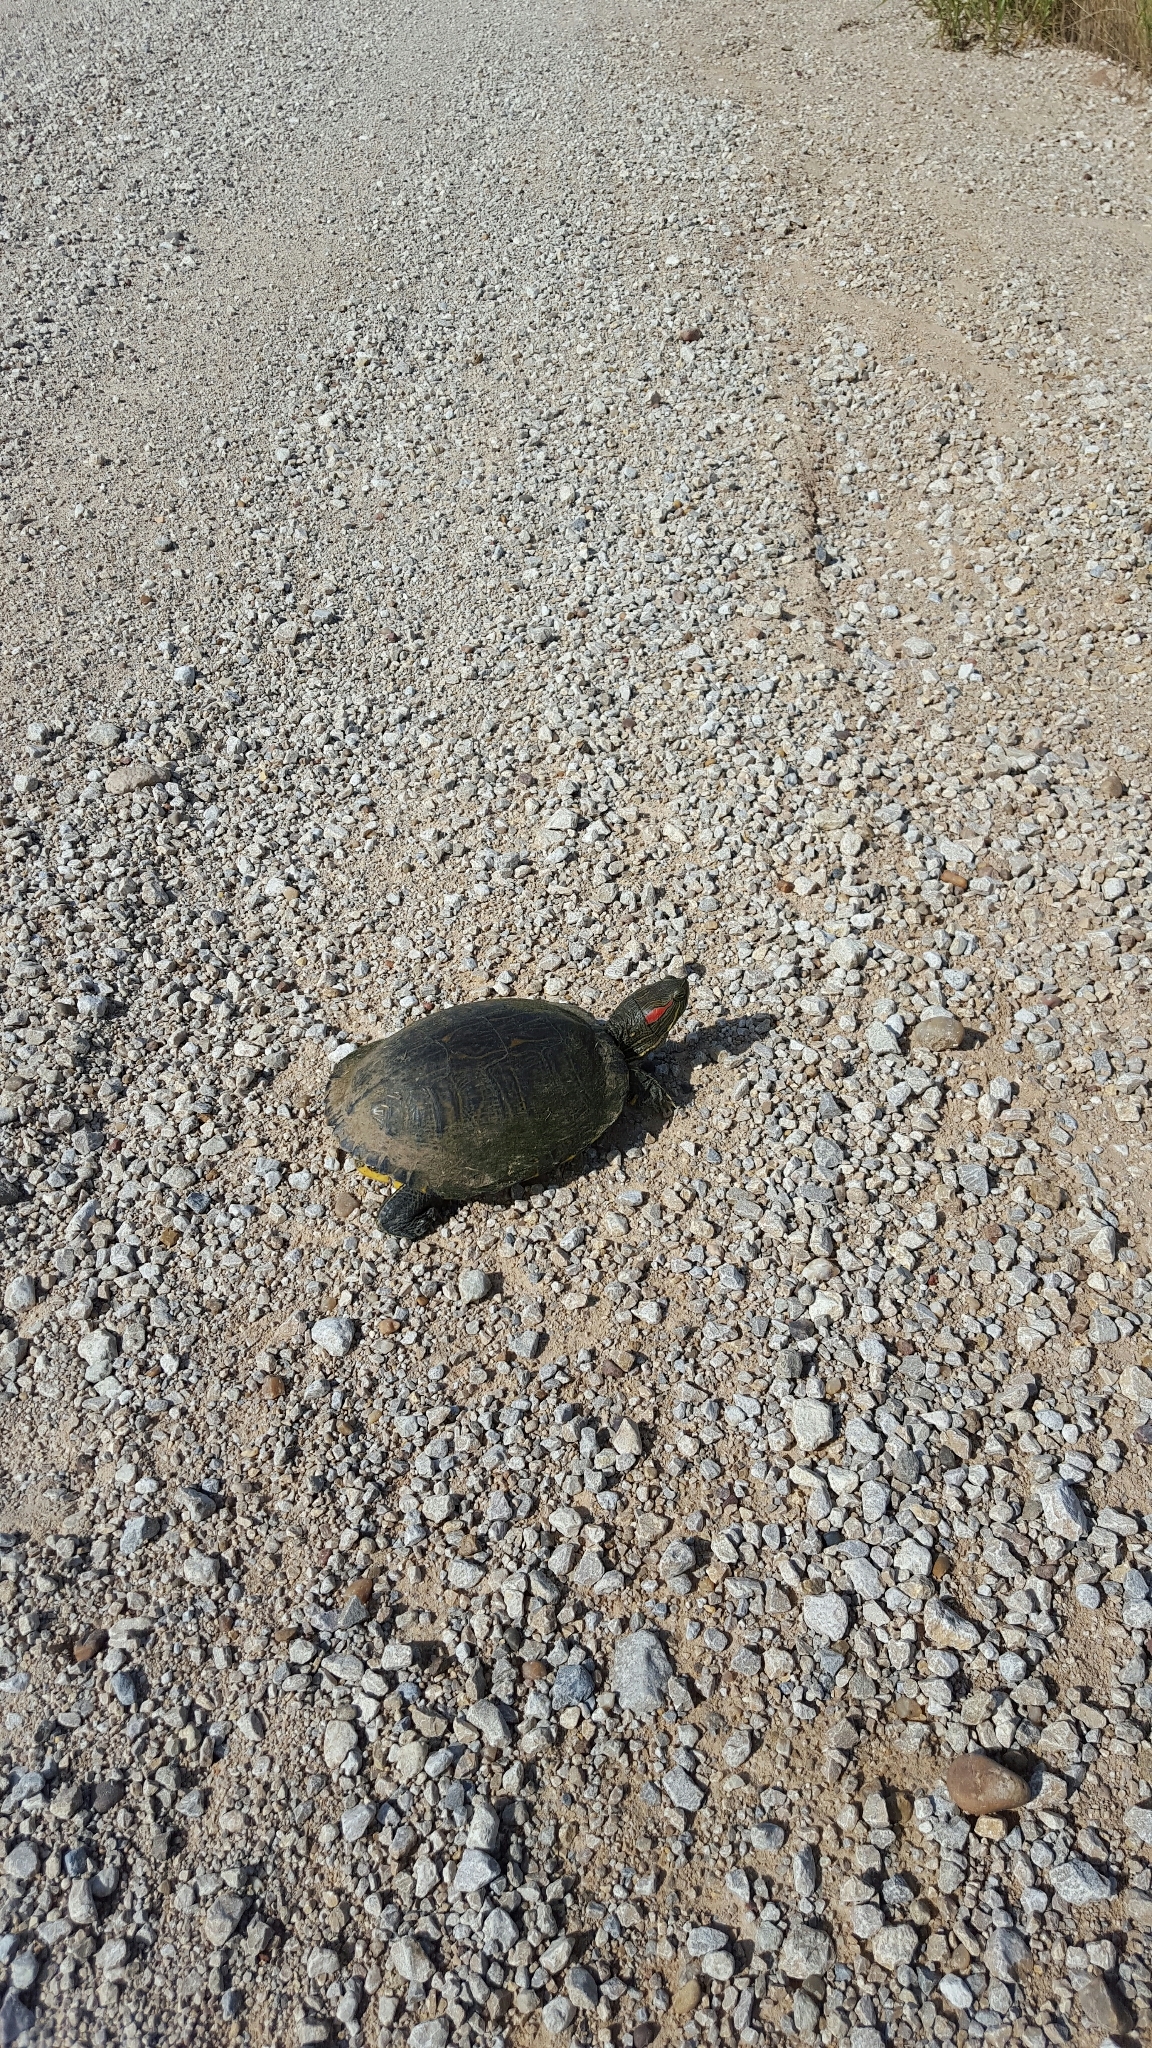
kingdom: Animalia
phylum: Chordata
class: Testudines
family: Emydidae
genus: Trachemys
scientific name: Trachemys scripta
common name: Slider
